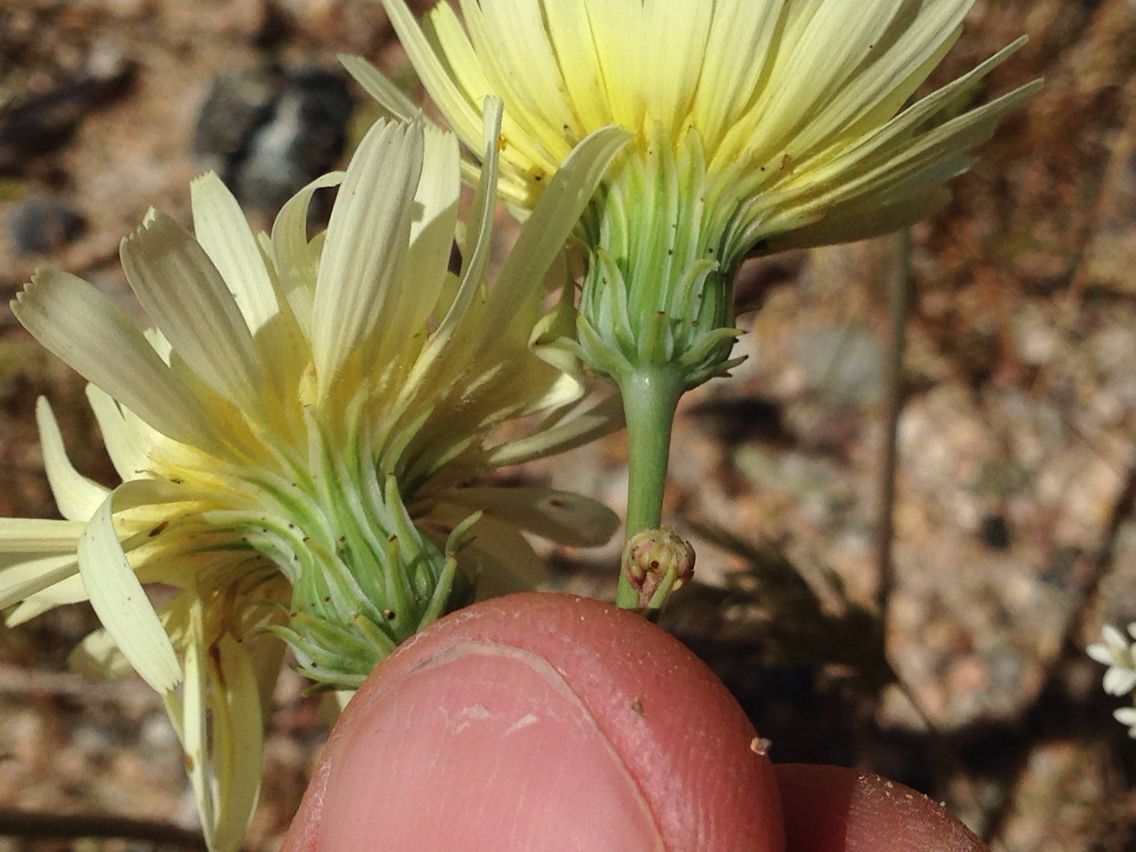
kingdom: Plantae
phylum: Tracheophyta
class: Magnoliopsida
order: Asterales
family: Asteraceae
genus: Malacothrix
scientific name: Malacothrix glabrata
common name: Smooth desert-dandelion
